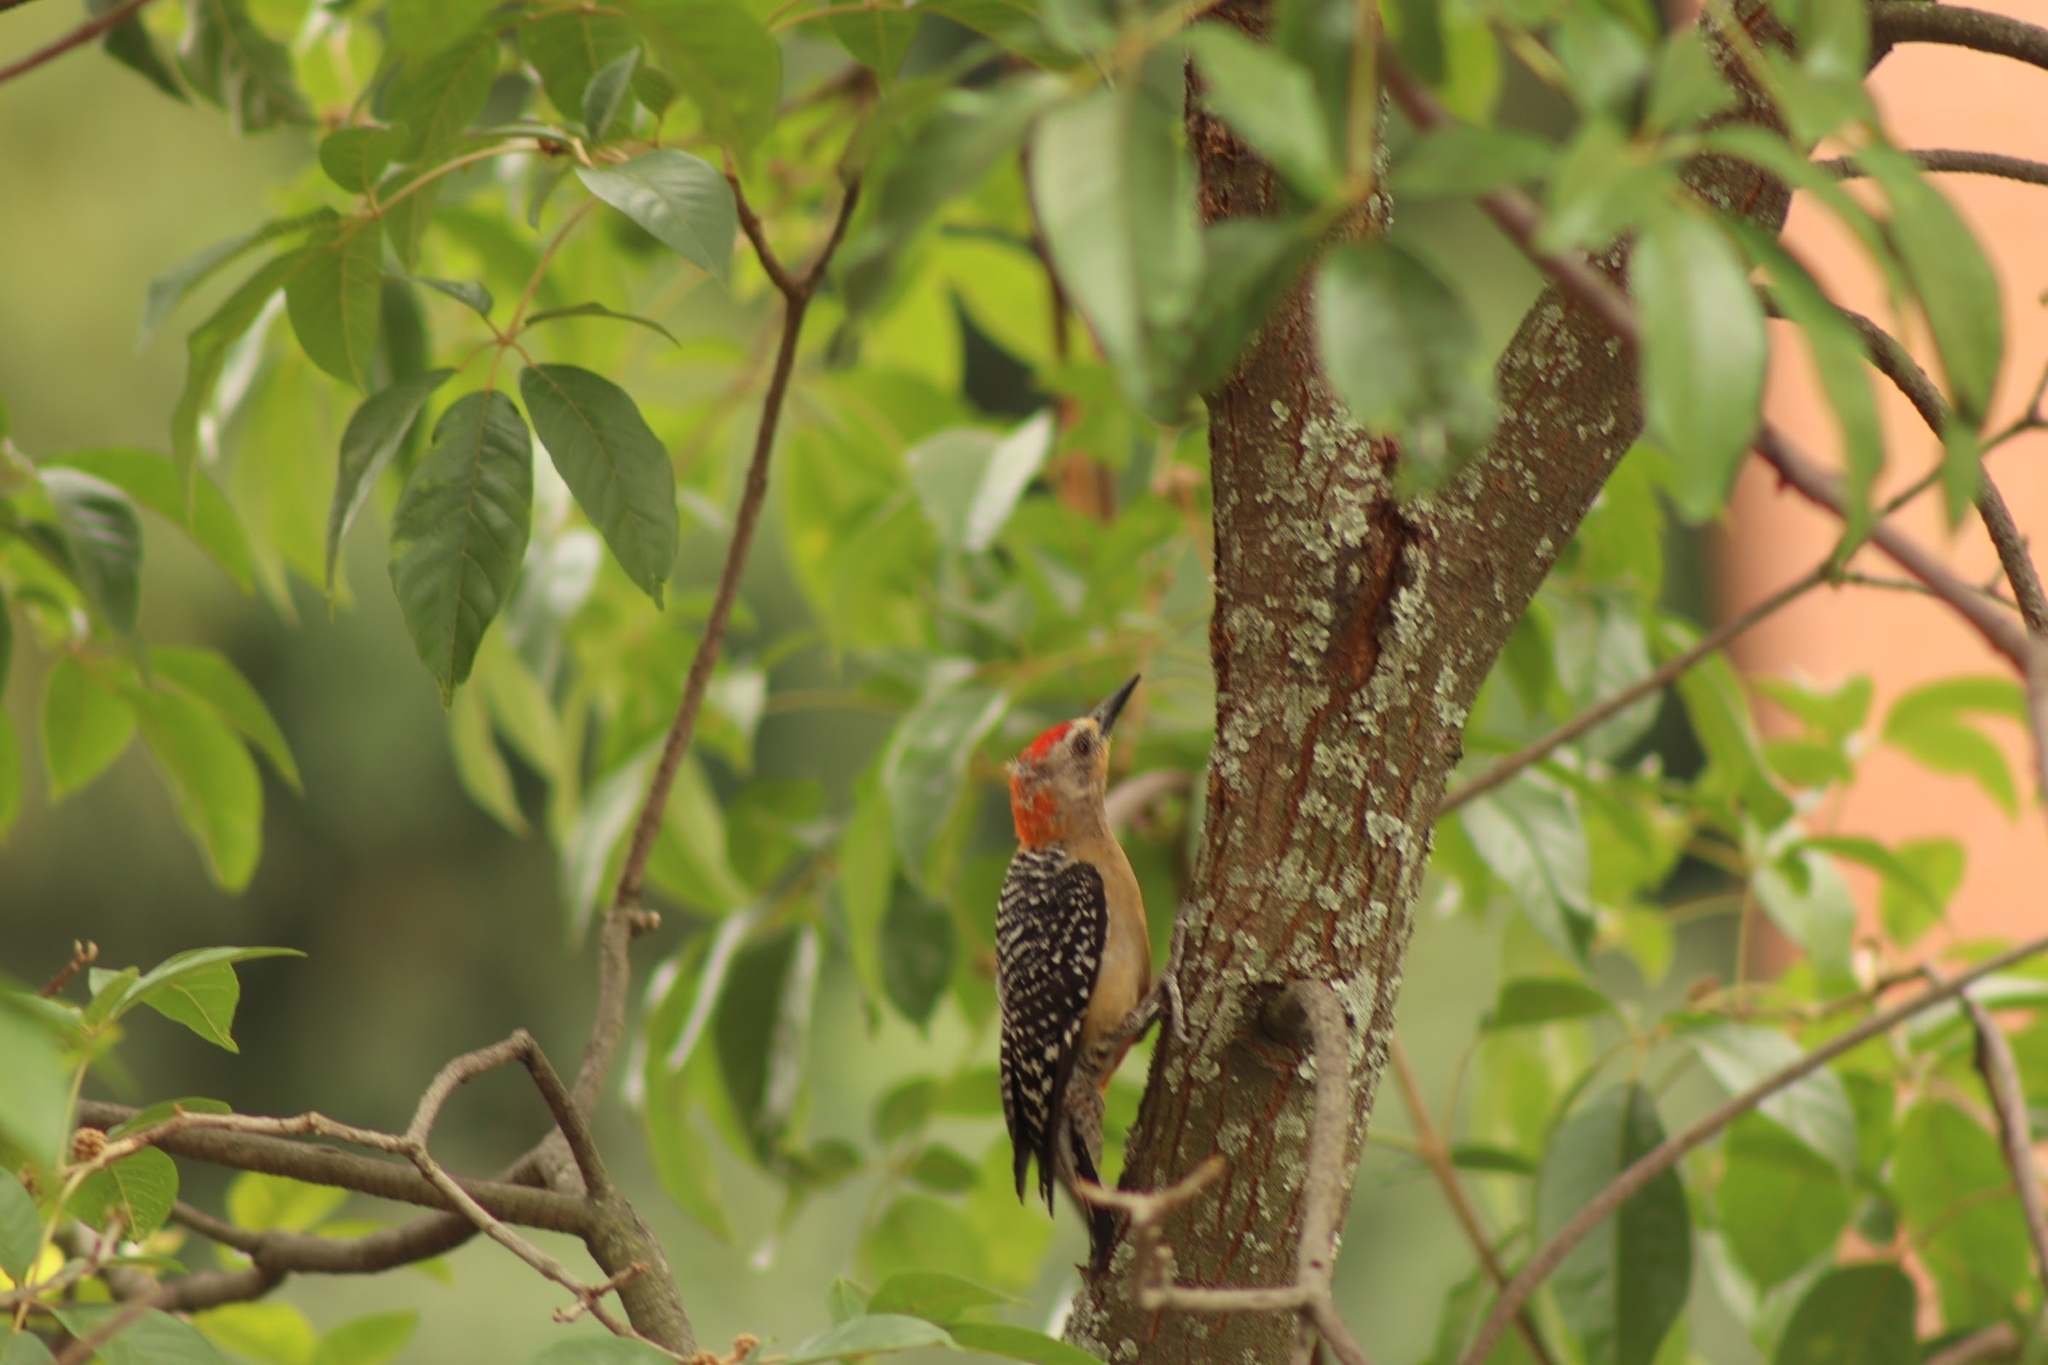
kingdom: Animalia
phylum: Chordata
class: Aves
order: Piciformes
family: Picidae
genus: Melanerpes
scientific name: Melanerpes rubricapillus
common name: Red-crowned woodpecker
